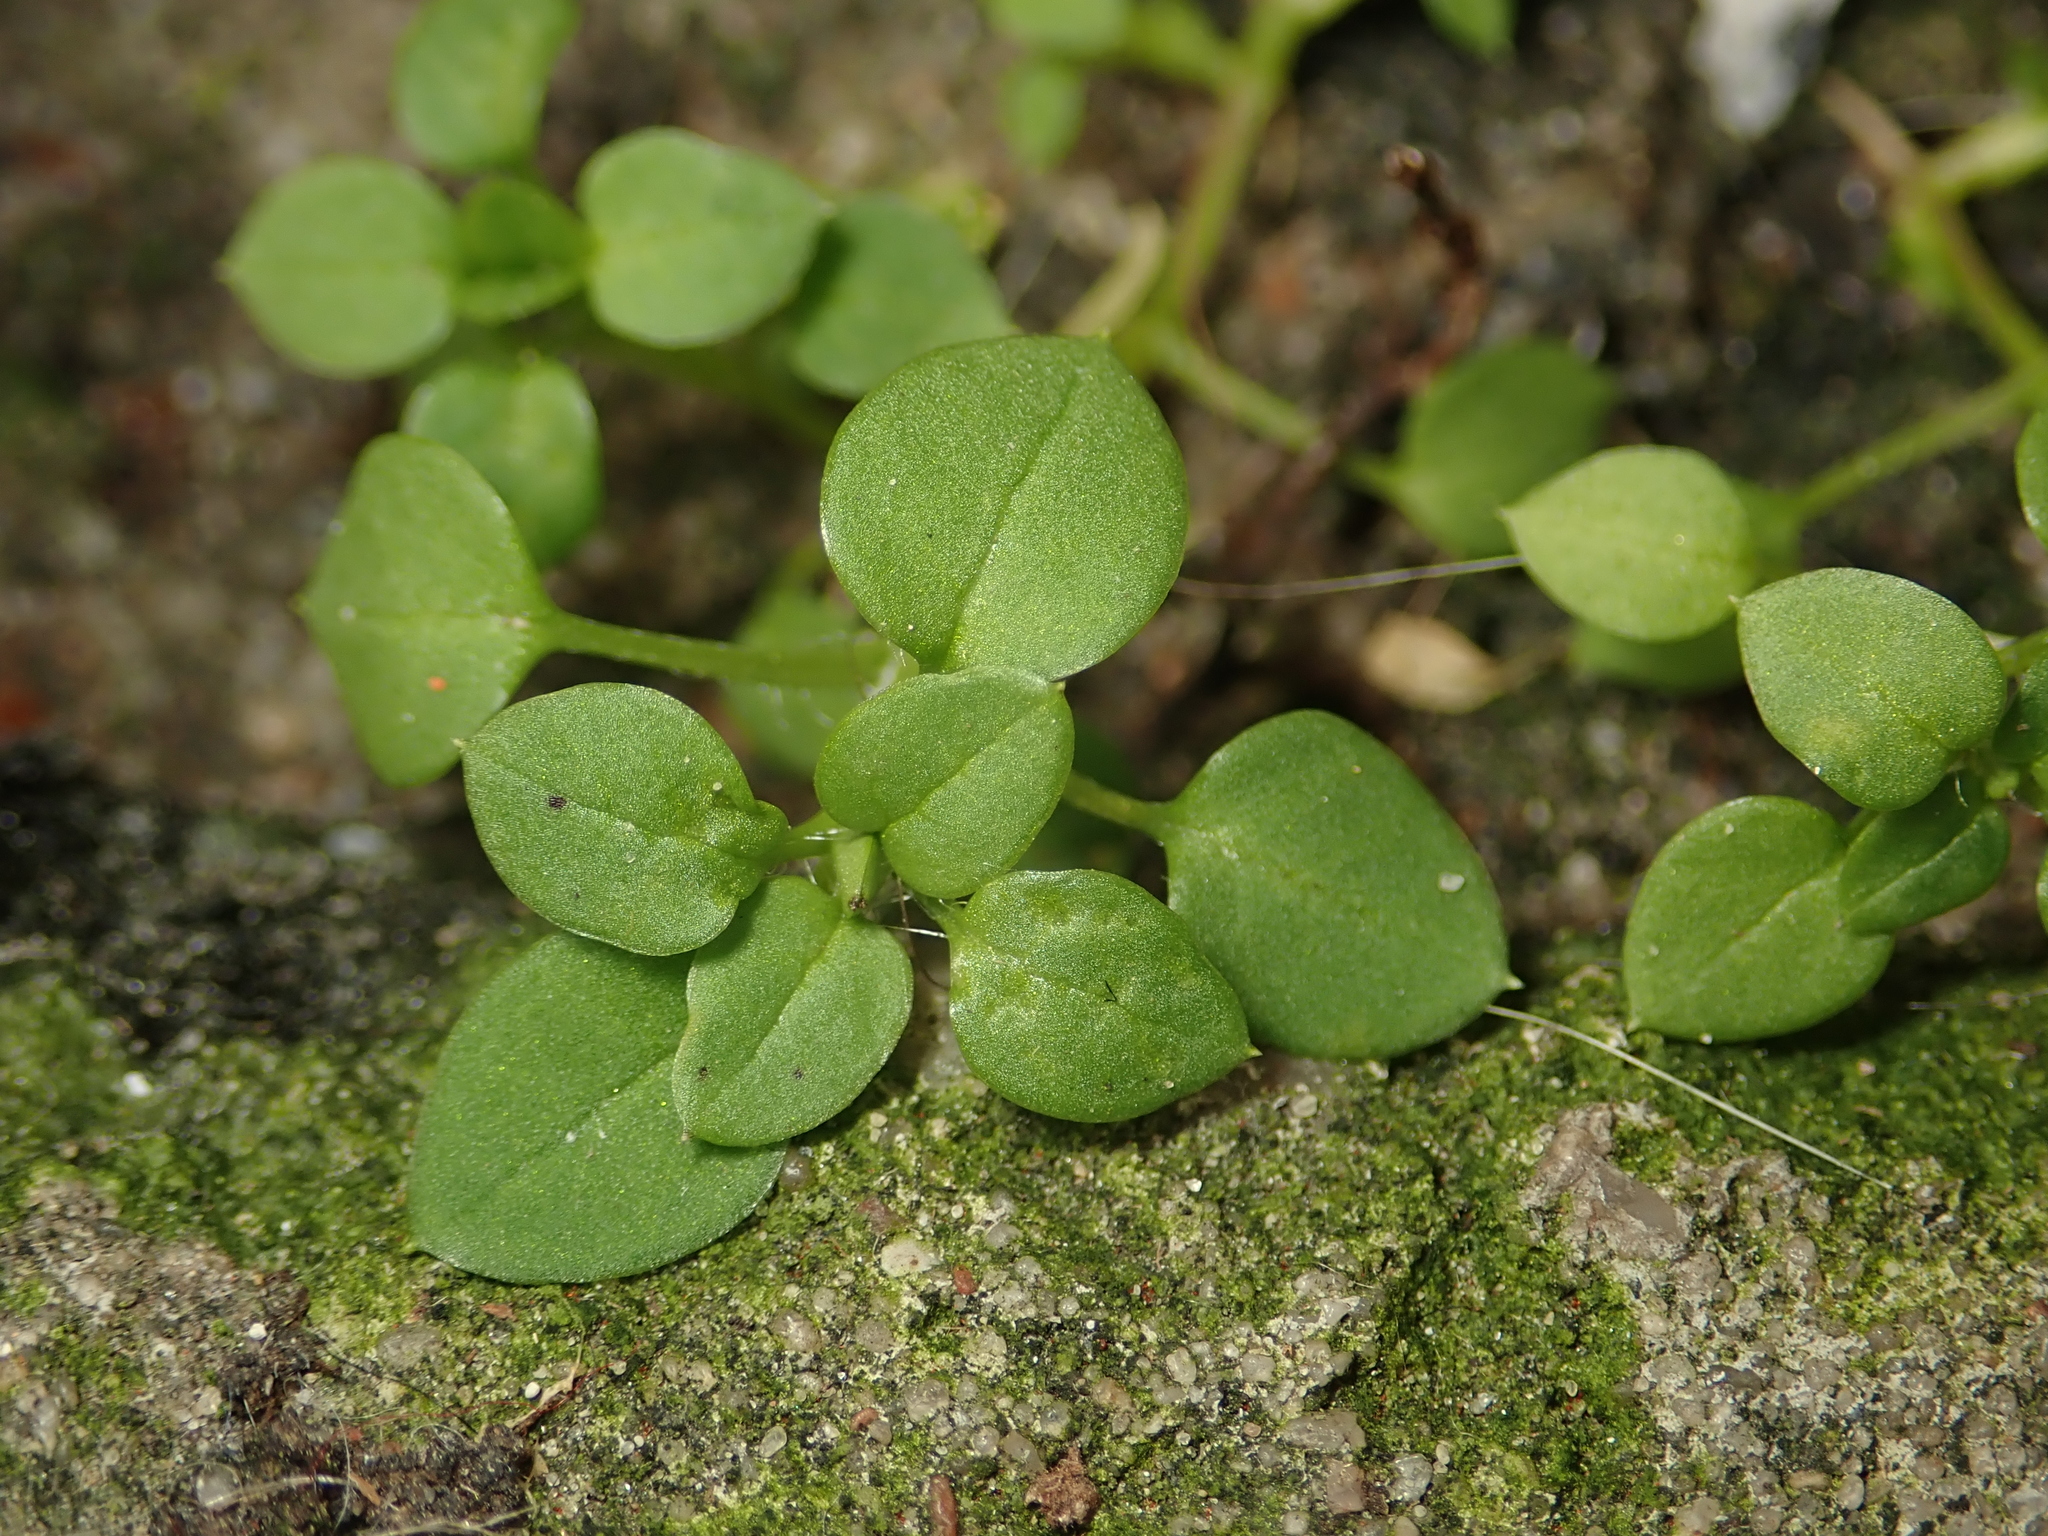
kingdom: Plantae
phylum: Tracheophyta
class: Magnoliopsida
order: Caryophyllales
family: Caryophyllaceae
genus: Stellaria
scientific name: Stellaria media
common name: Common chickweed
